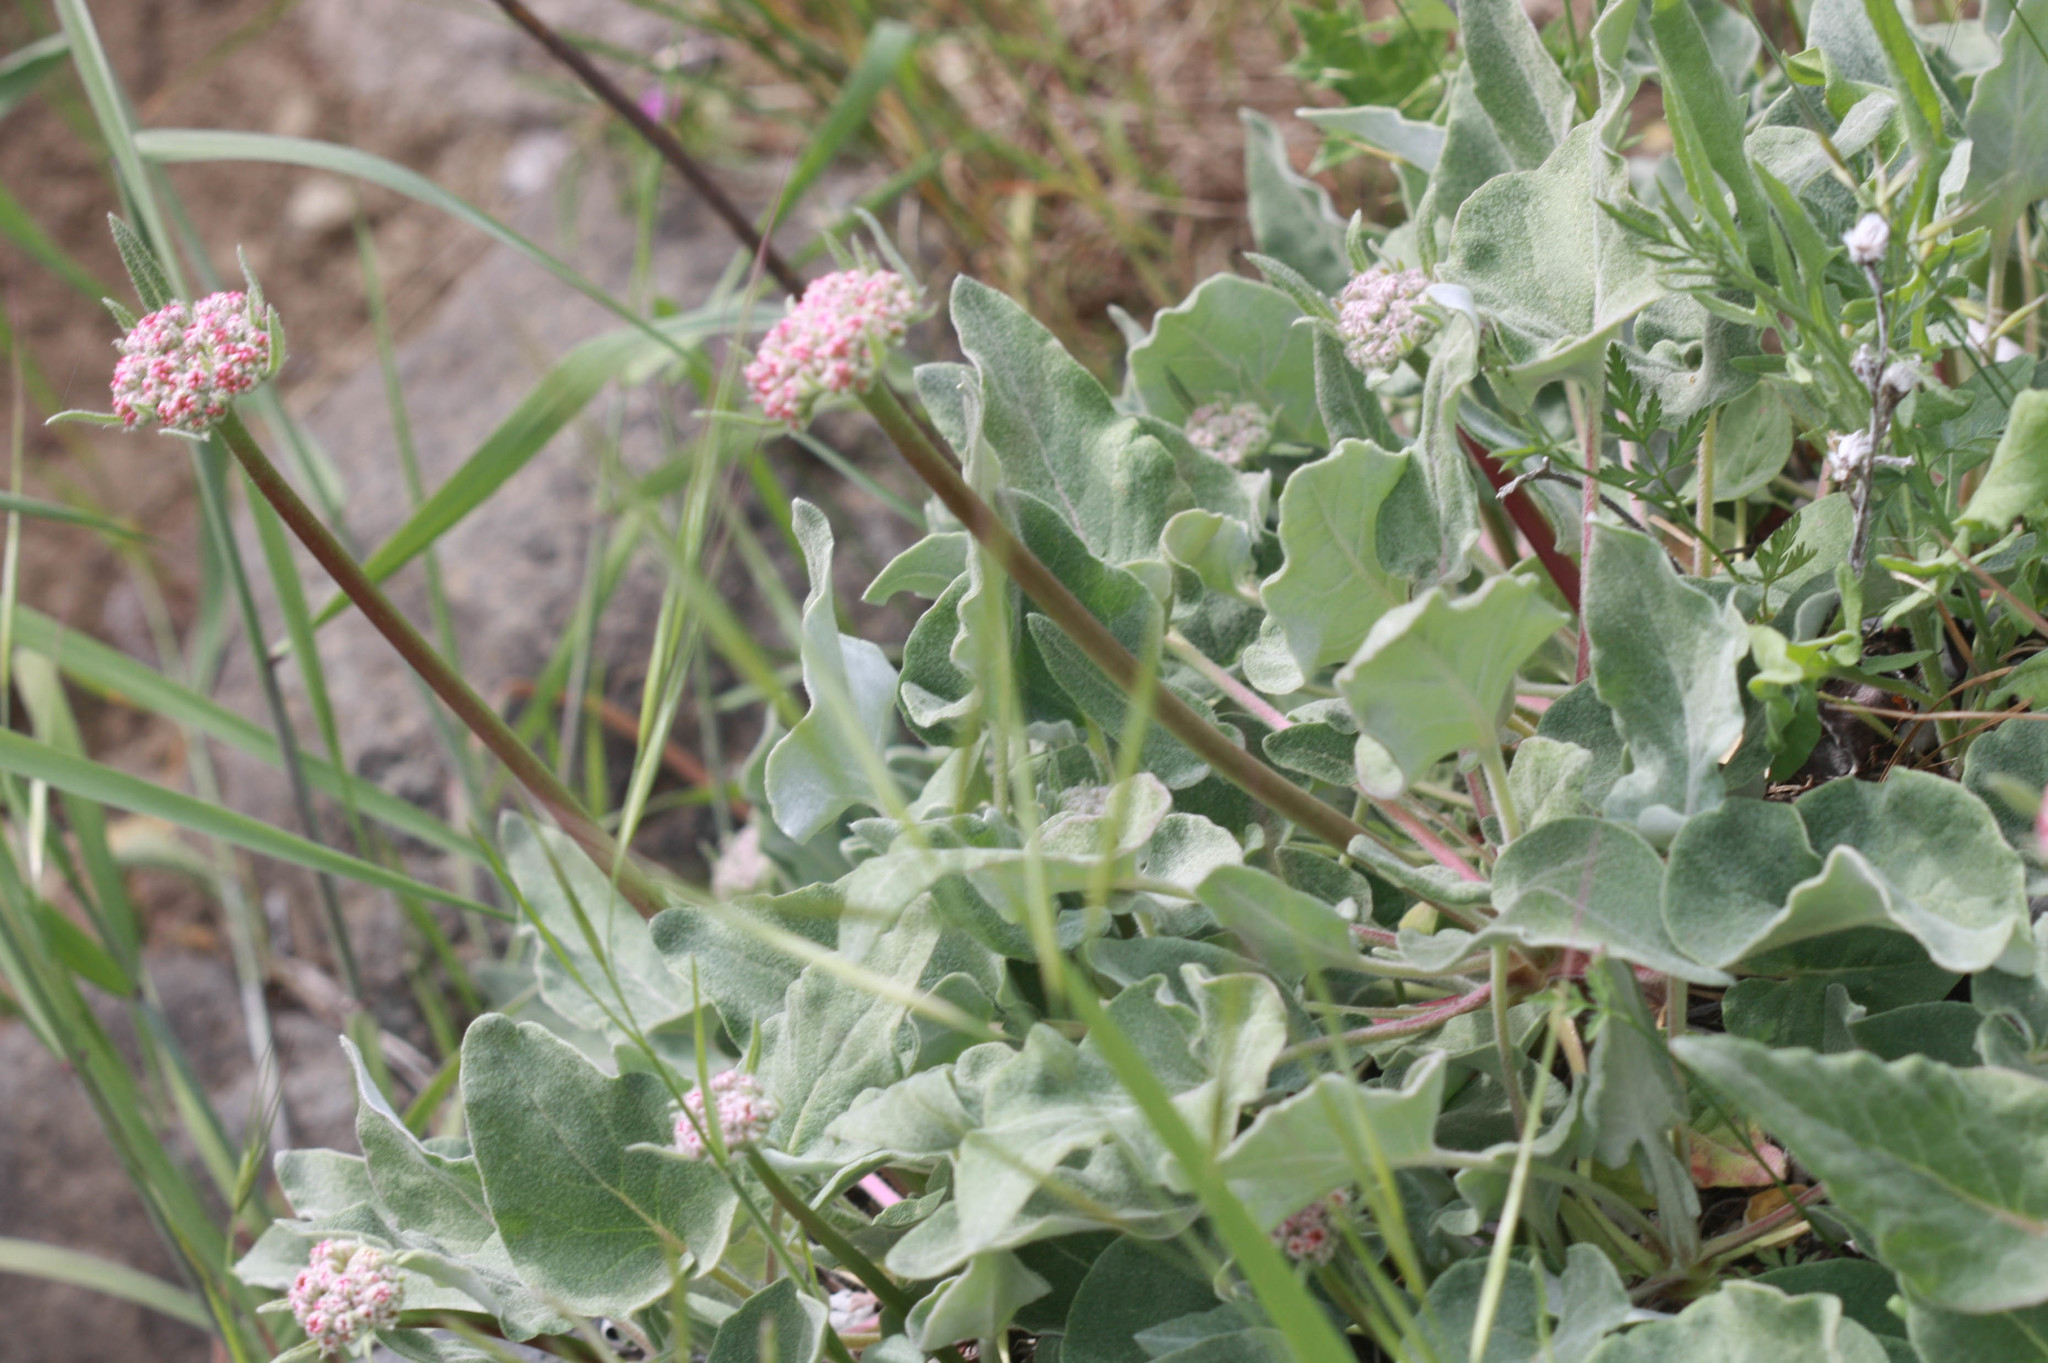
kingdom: Plantae
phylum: Tracheophyta
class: Magnoliopsida
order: Caryophyllales
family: Polygonaceae
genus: Eriogonum
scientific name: Eriogonum compositum
